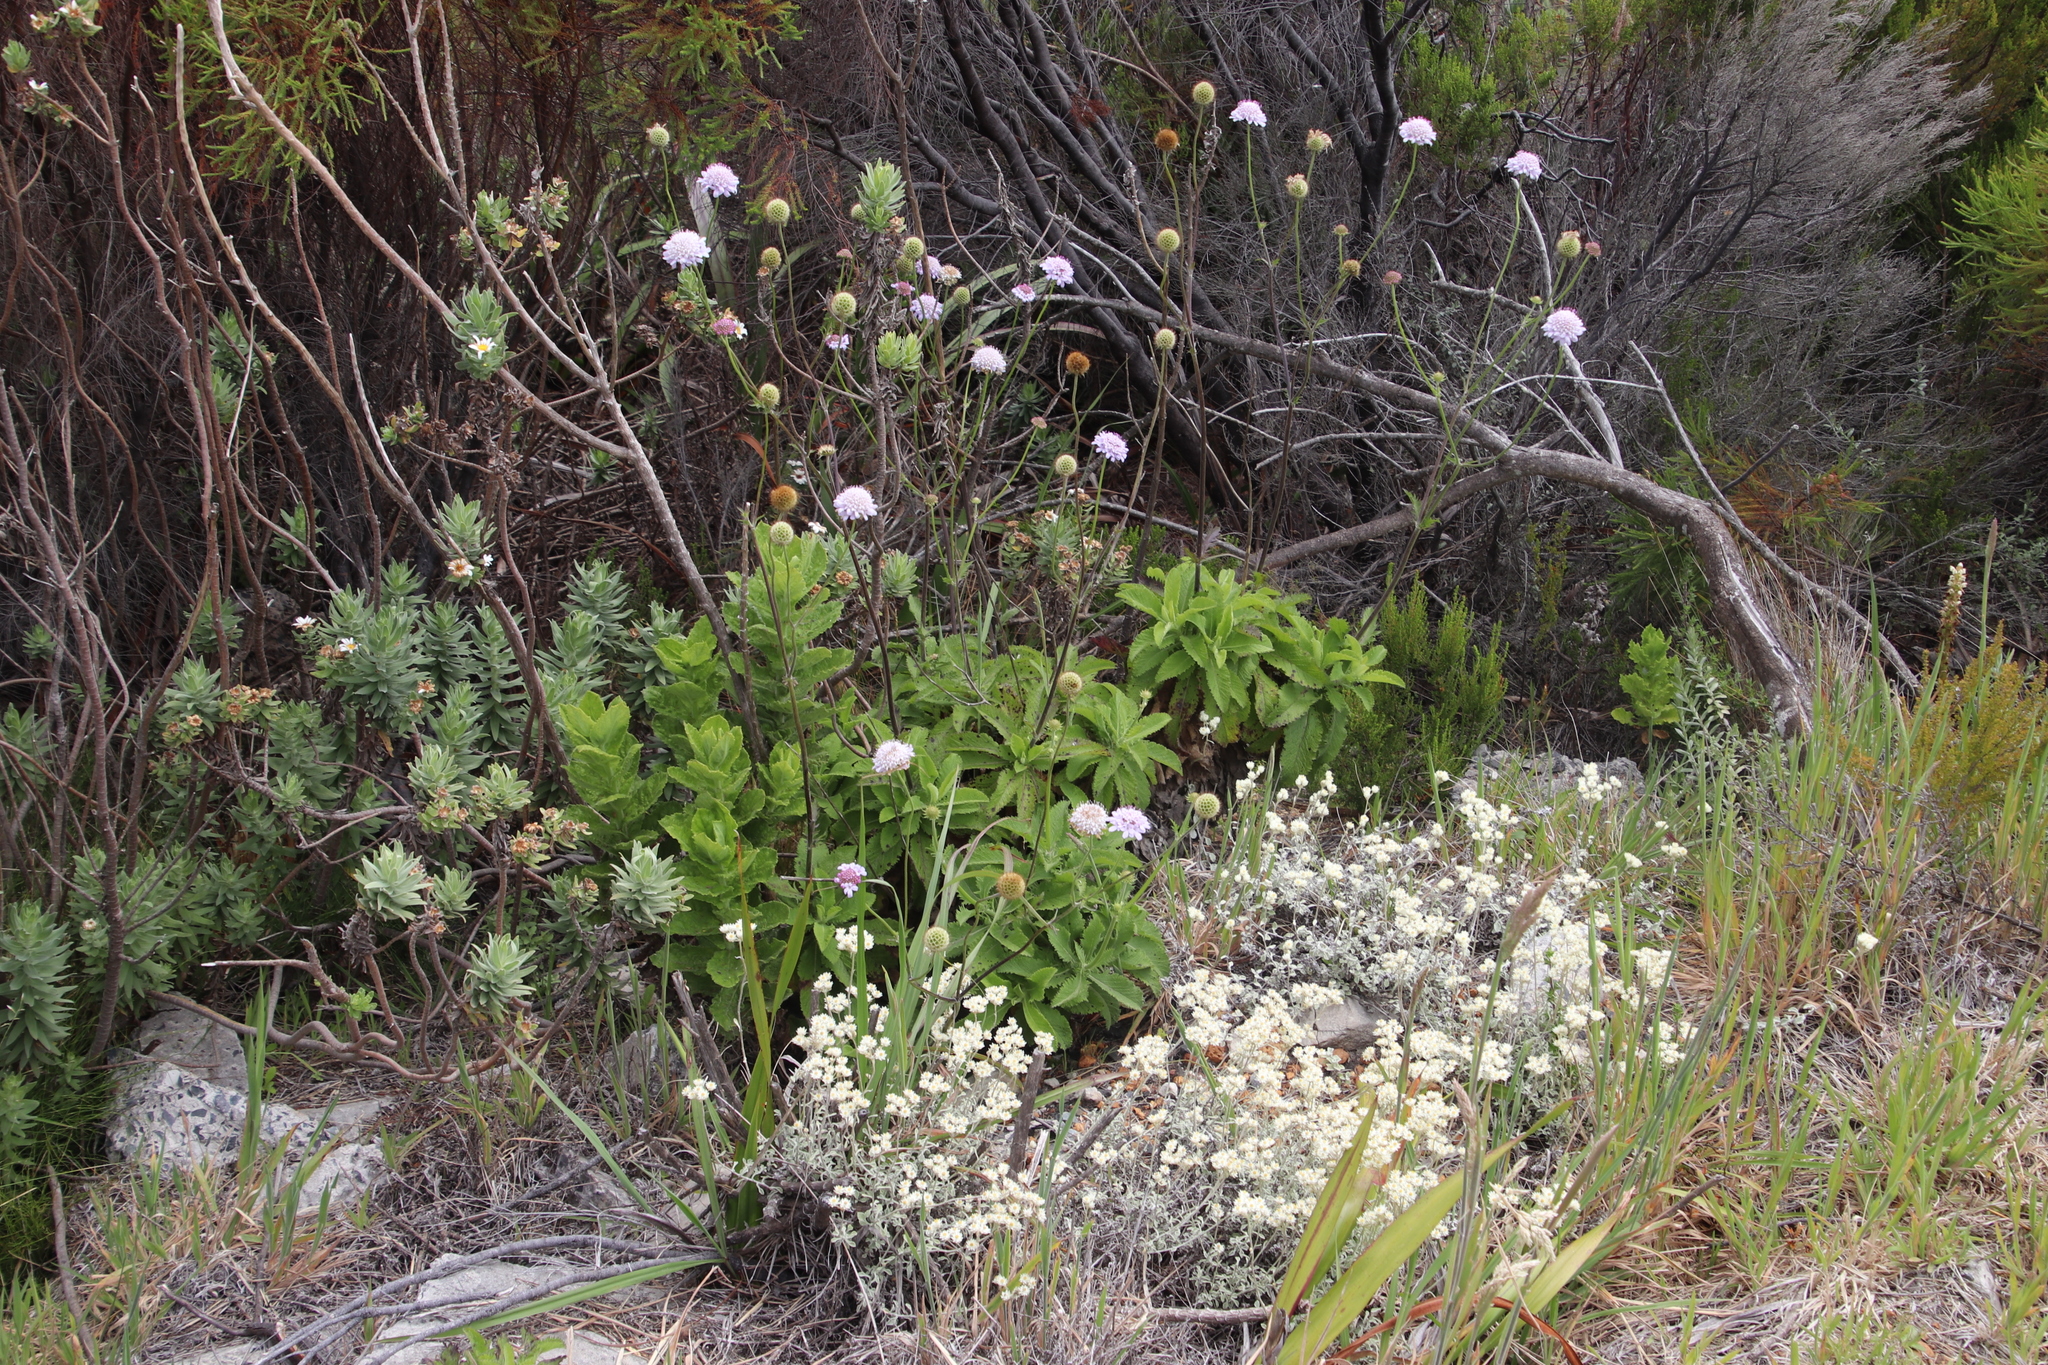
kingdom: Plantae
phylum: Tracheophyta
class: Magnoliopsida
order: Dipsacales
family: Caprifoliaceae
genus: Scabiosa
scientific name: Scabiosa africana
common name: Cape scabious
